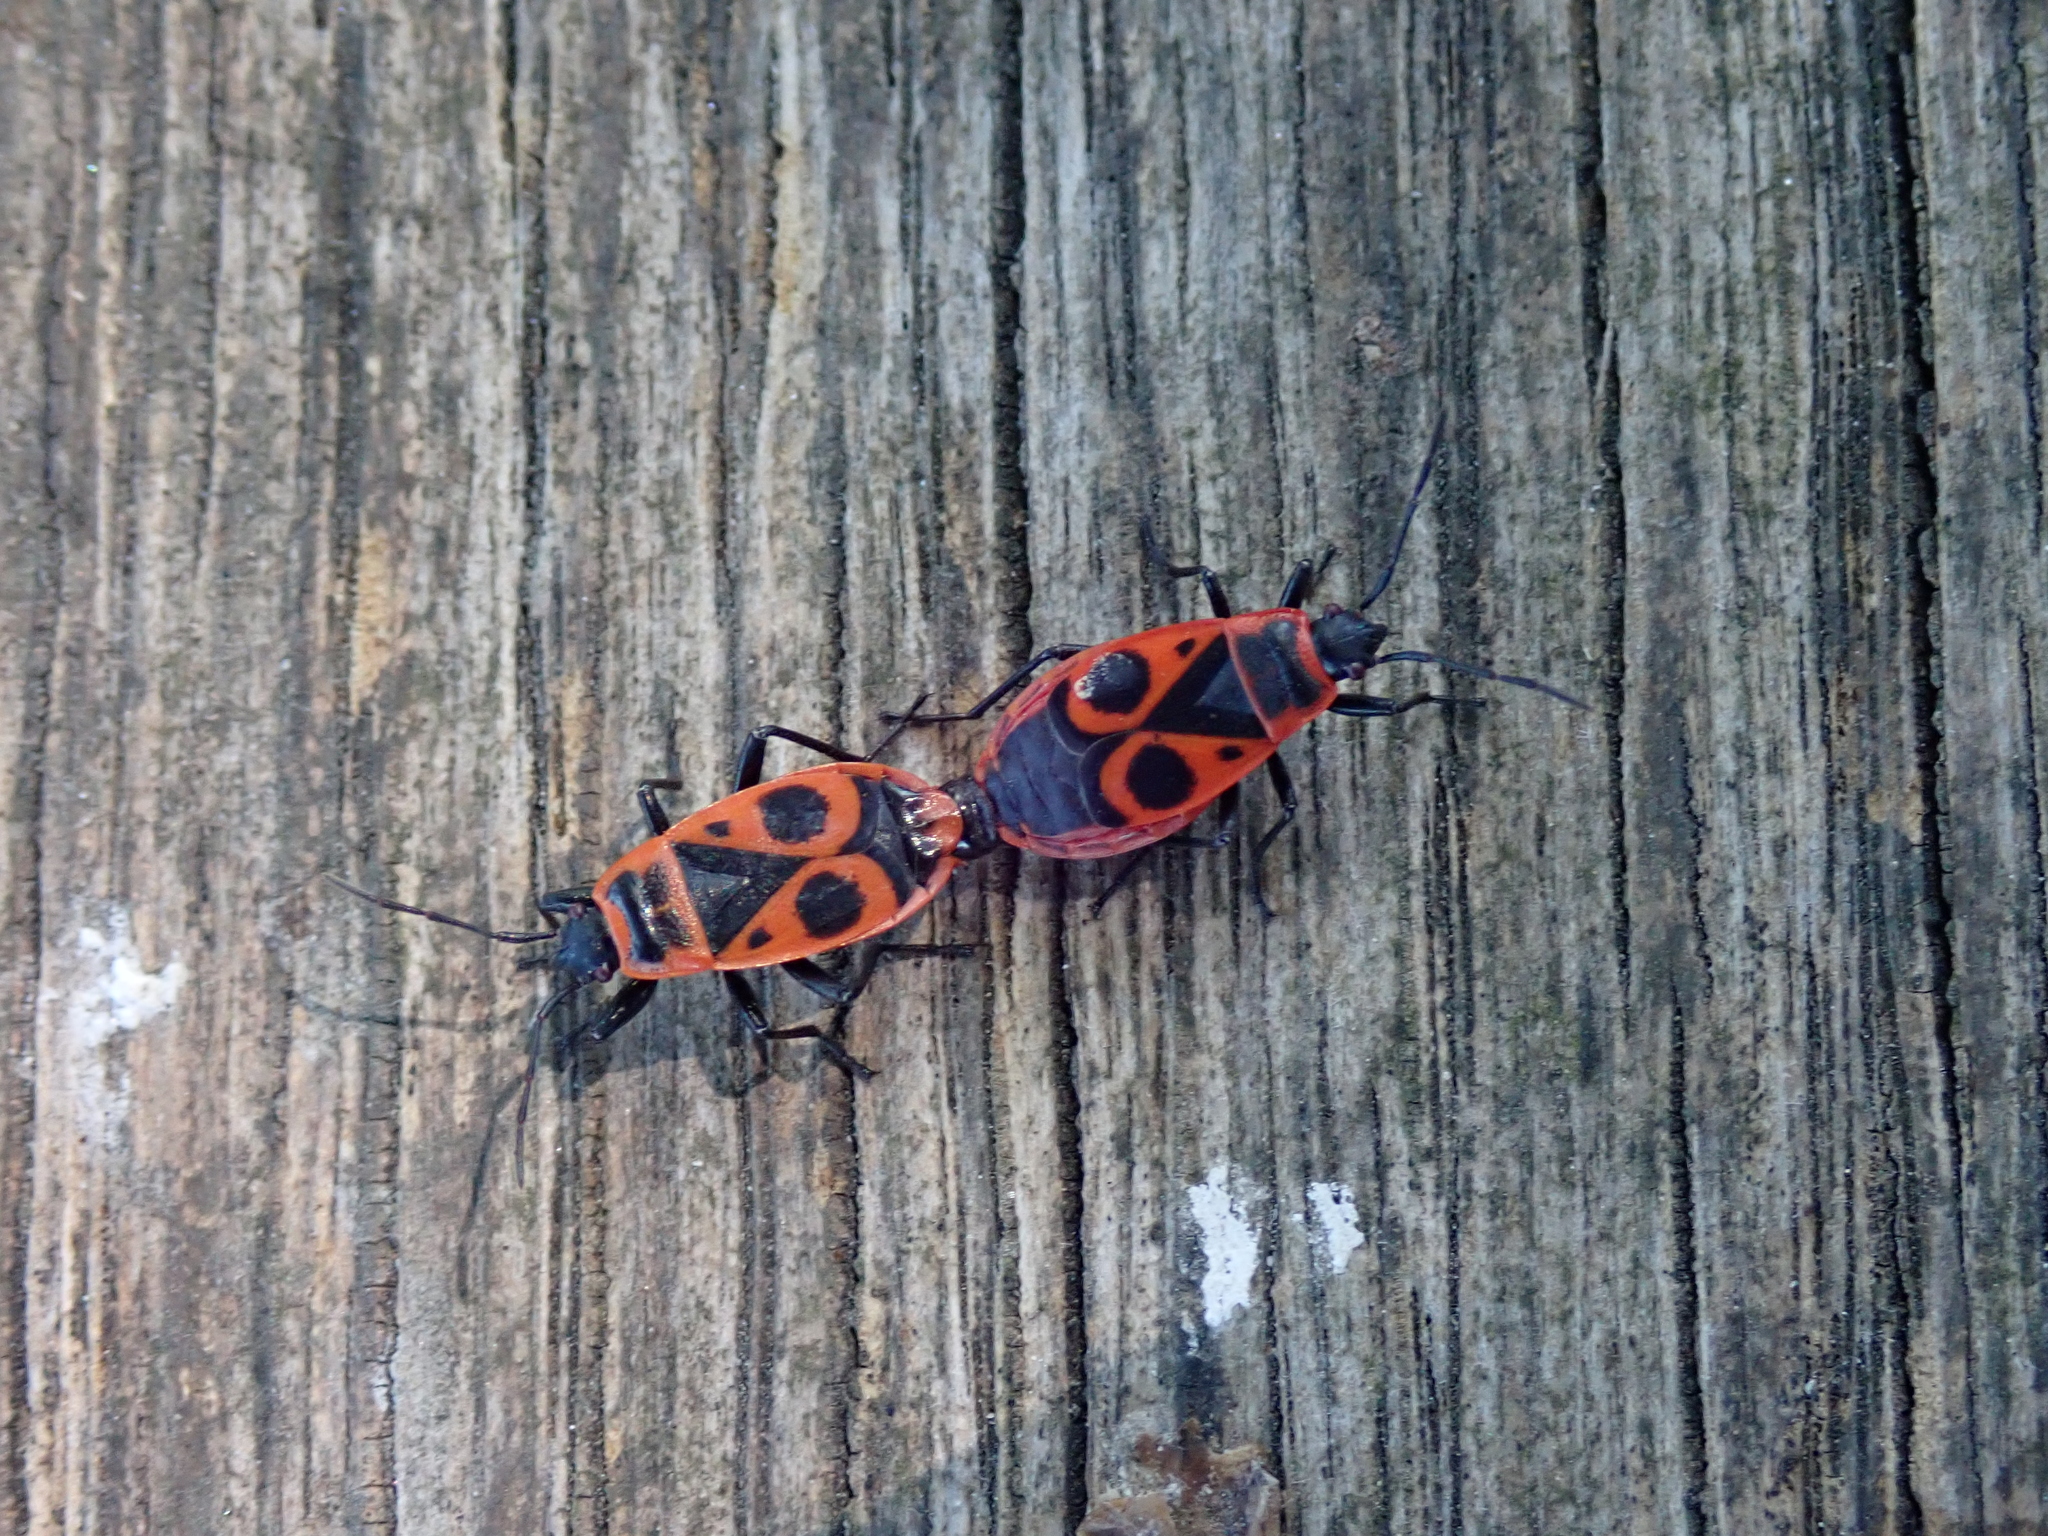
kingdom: Animalia
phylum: Arthropoda
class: Insecta
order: Hemiptera
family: Pyrrhocoridae
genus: Pyrrhocoris
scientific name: Pyrrhocoris apterus
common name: Firebug
